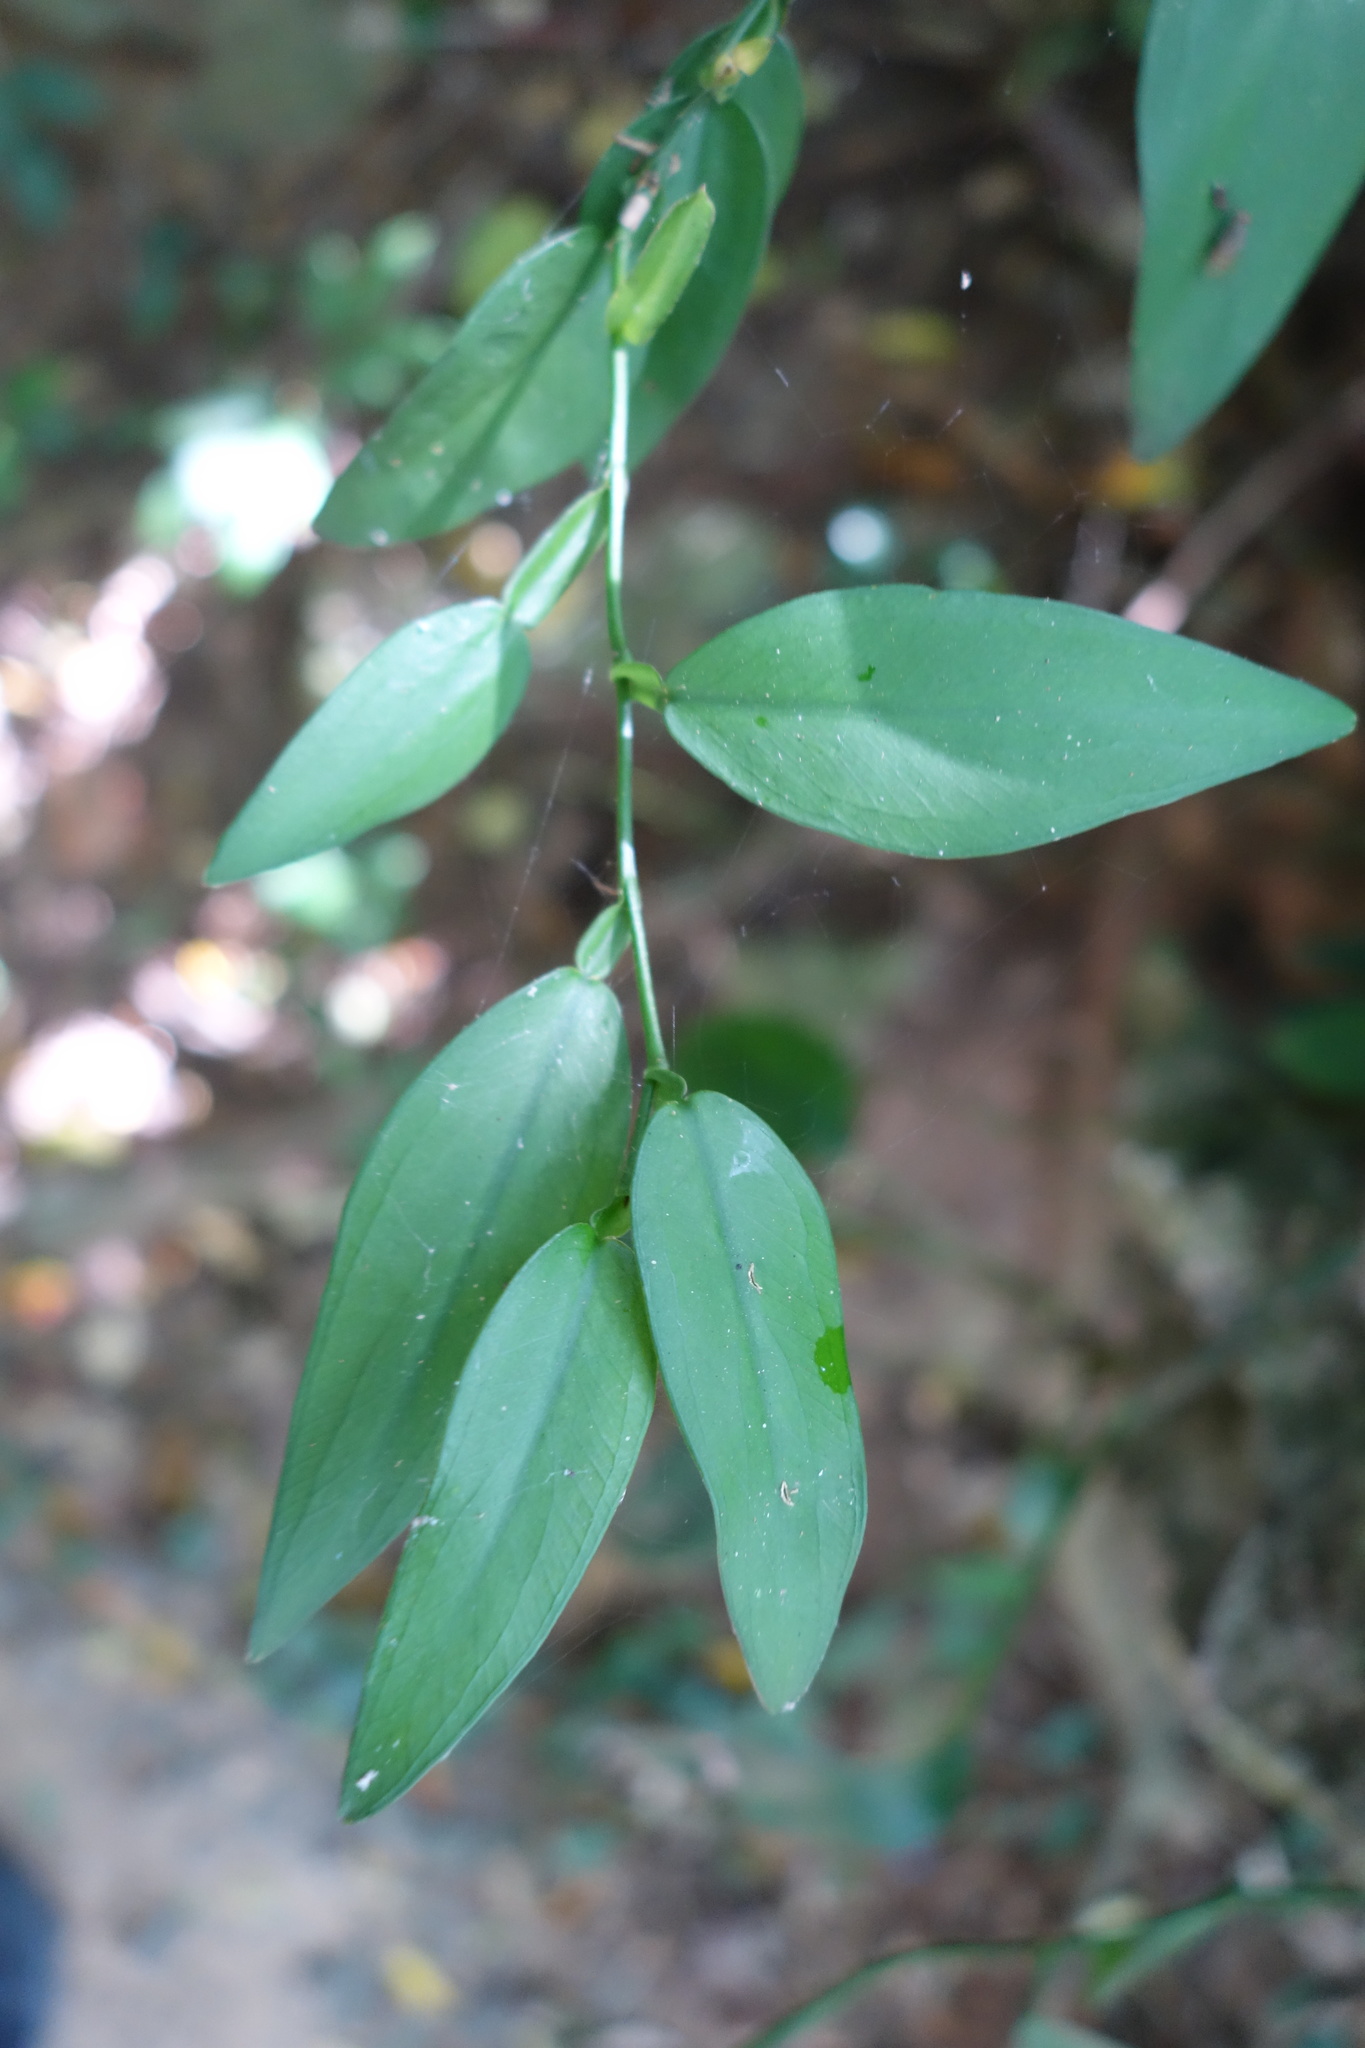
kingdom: Plantae
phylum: Tracheophyta
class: Liliopsida
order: Alismatales
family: Araceae
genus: Pothos
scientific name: Pothos chinensis
